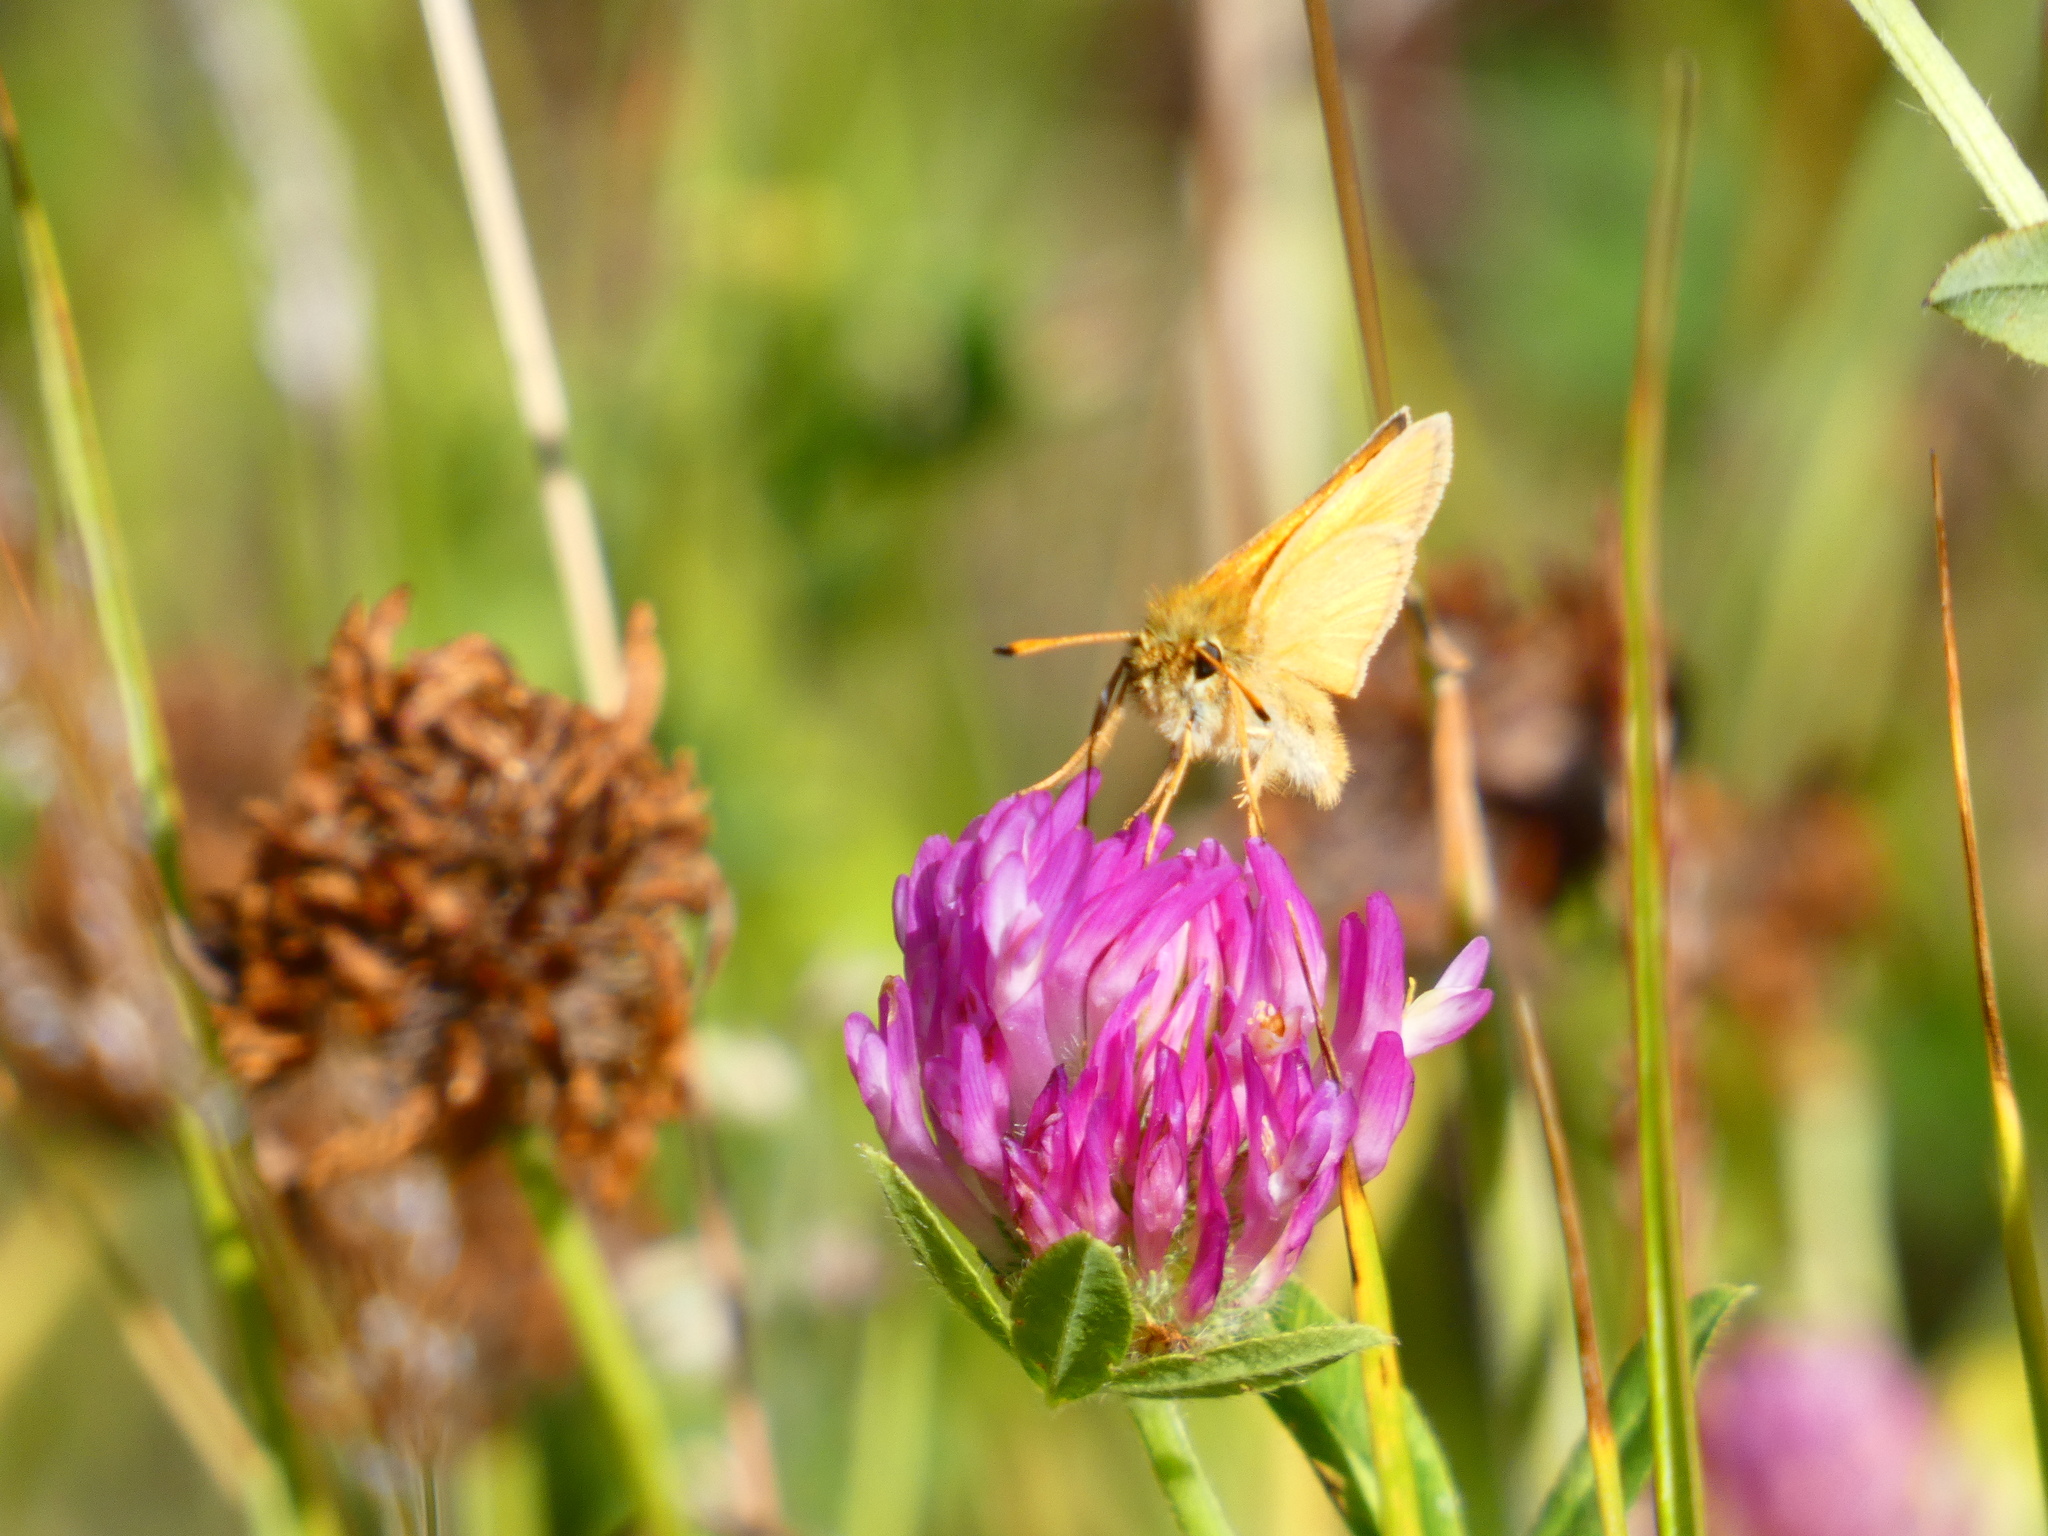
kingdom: Animalia
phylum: Arthropoda
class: Insecta
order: Lepidoptera
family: Hesperiidae
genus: Thymelicus
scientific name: Thymelicus lineola
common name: Essex skipper
